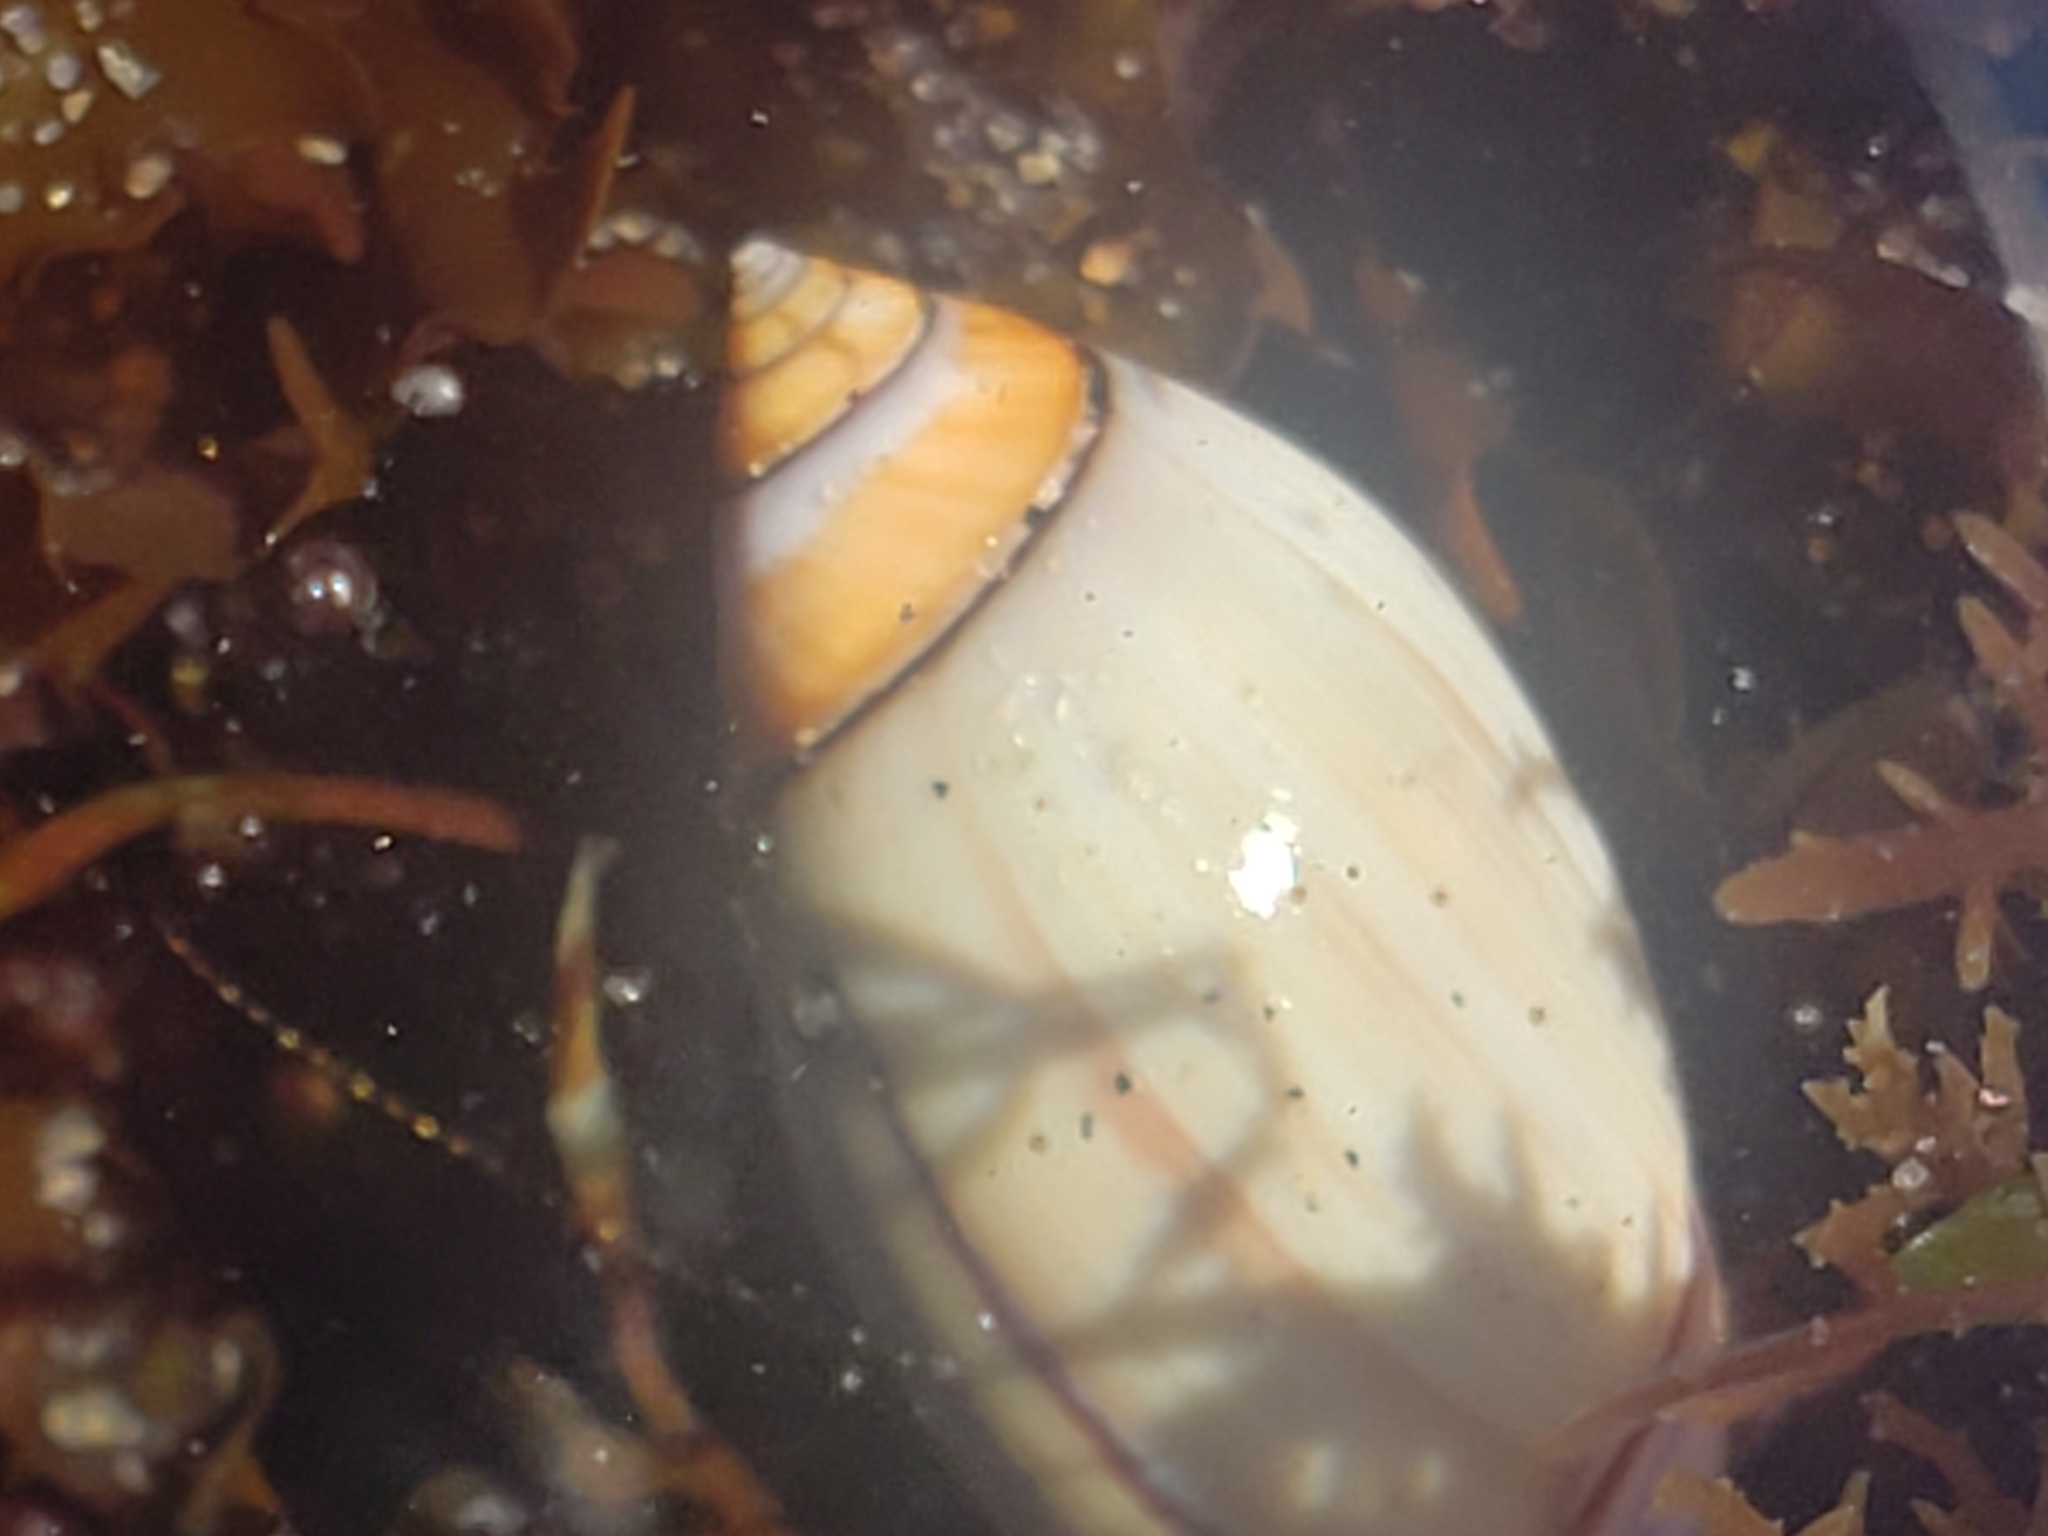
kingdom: Animalia
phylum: Mollusca
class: Gastropoda
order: Neogastropoda
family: Olividae
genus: Callianax
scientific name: Callianax biplicata
